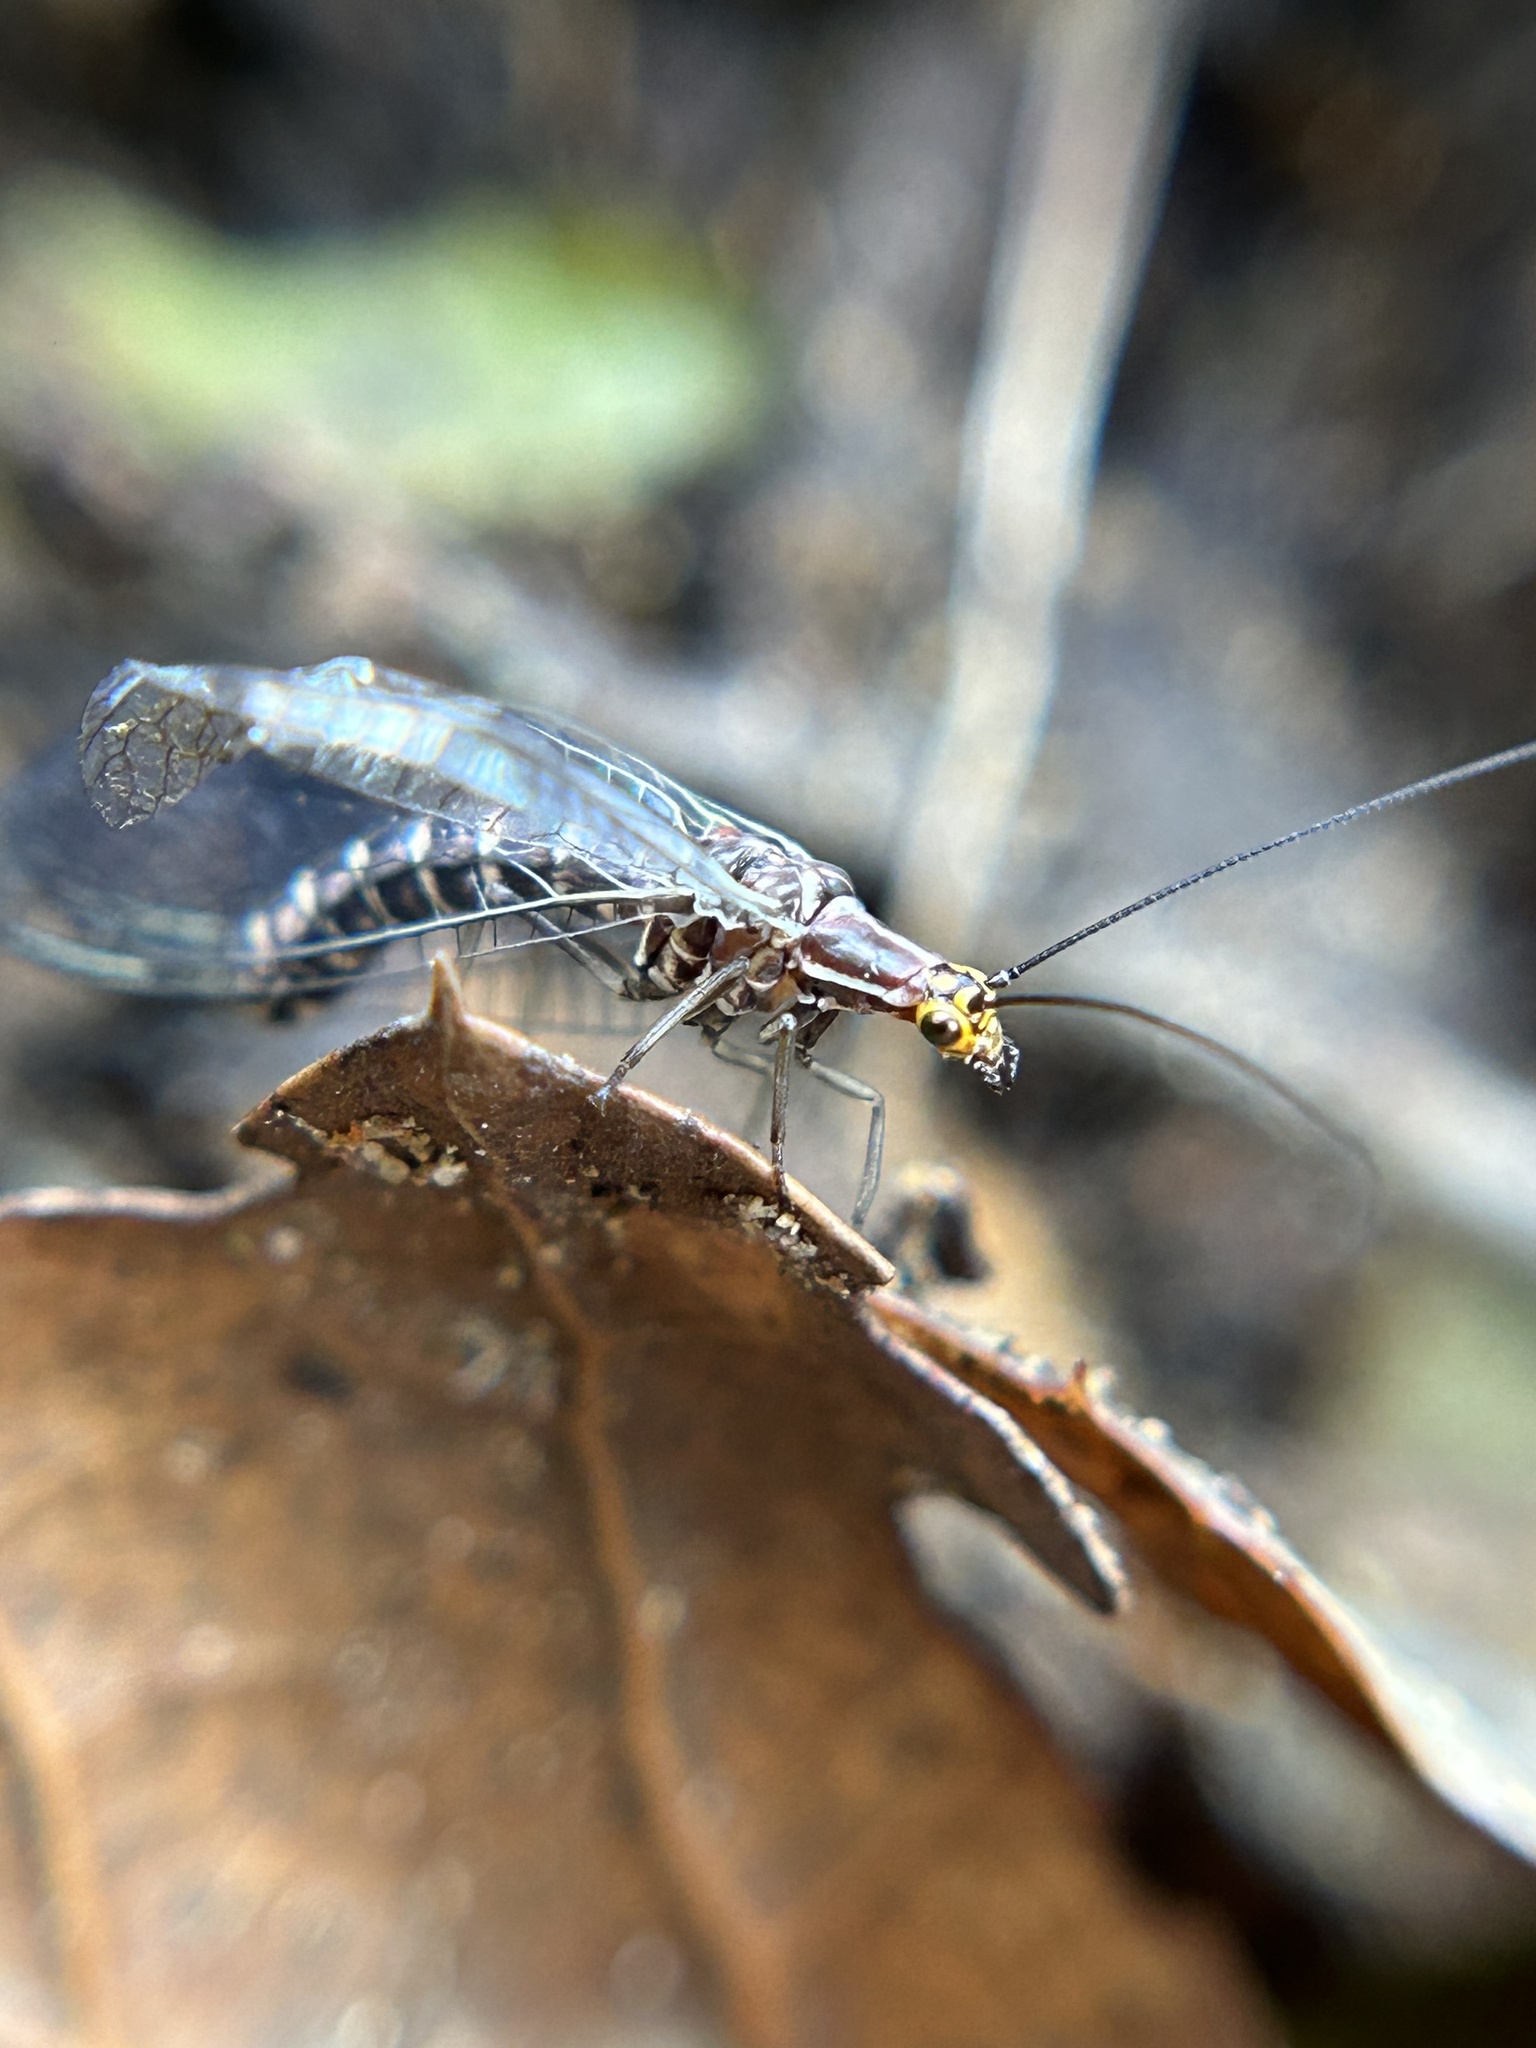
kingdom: Animalia
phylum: Arthropoda
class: Insecta
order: Neuroptera
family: Chrysopidae
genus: Nothochrysa
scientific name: Nothochrysa californica
